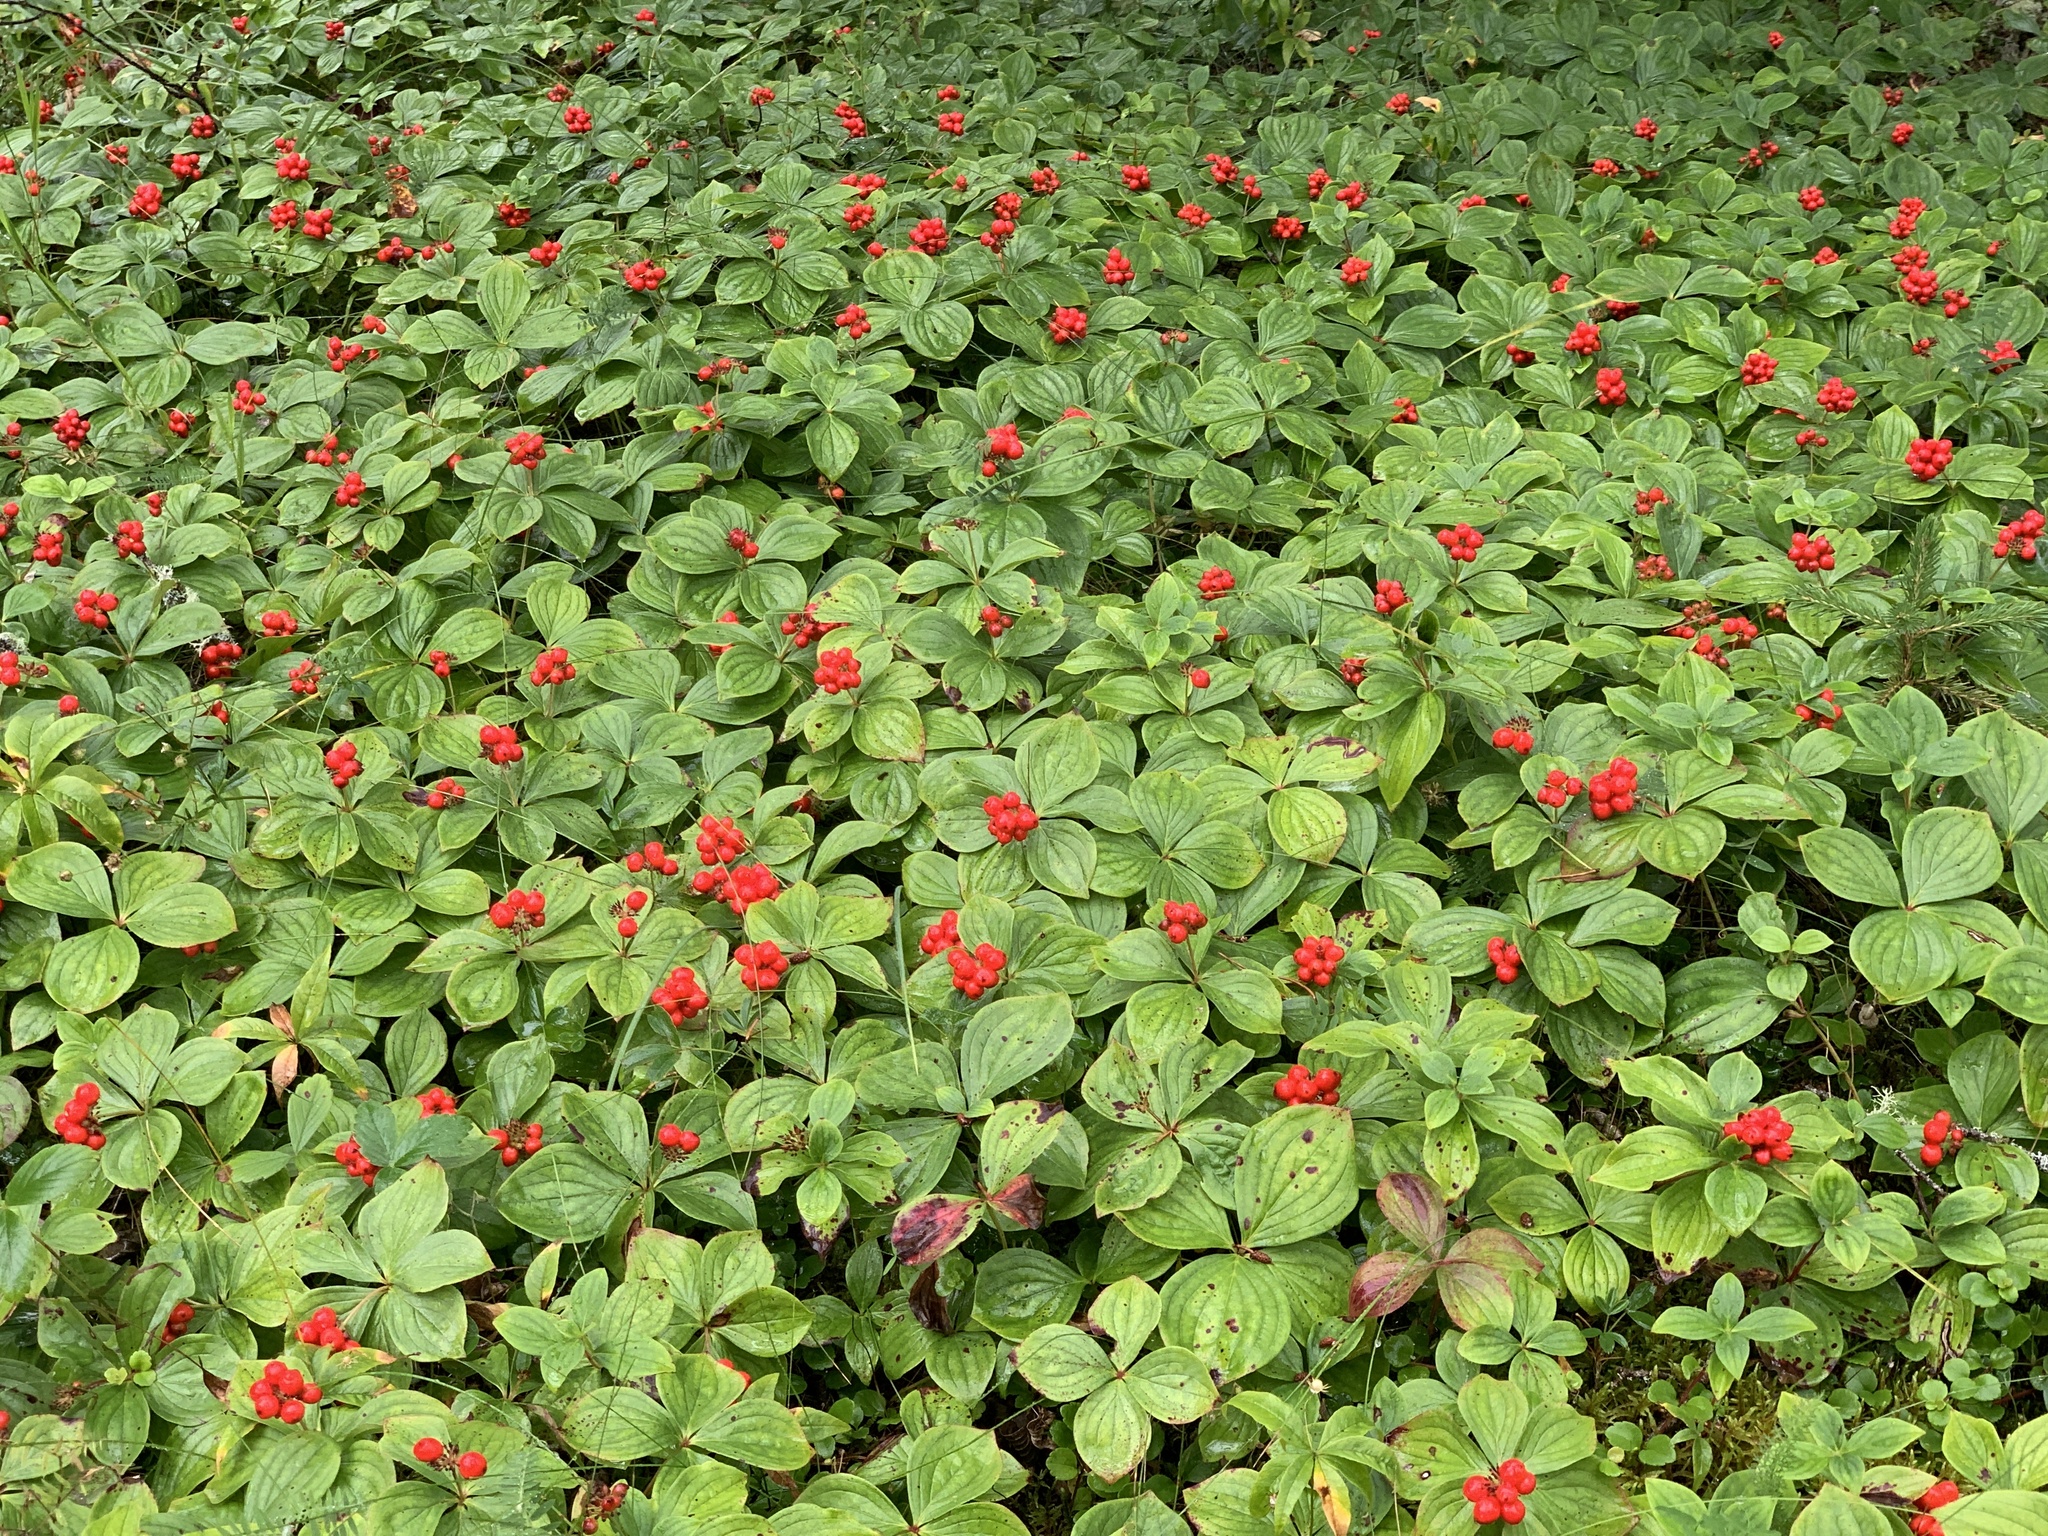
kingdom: Plantae
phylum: Tracheophyta
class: Magnoliopsida
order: Cornales
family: Cornaceae
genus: Cornus
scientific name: Cornus canadensis
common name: Creeping dogwood
